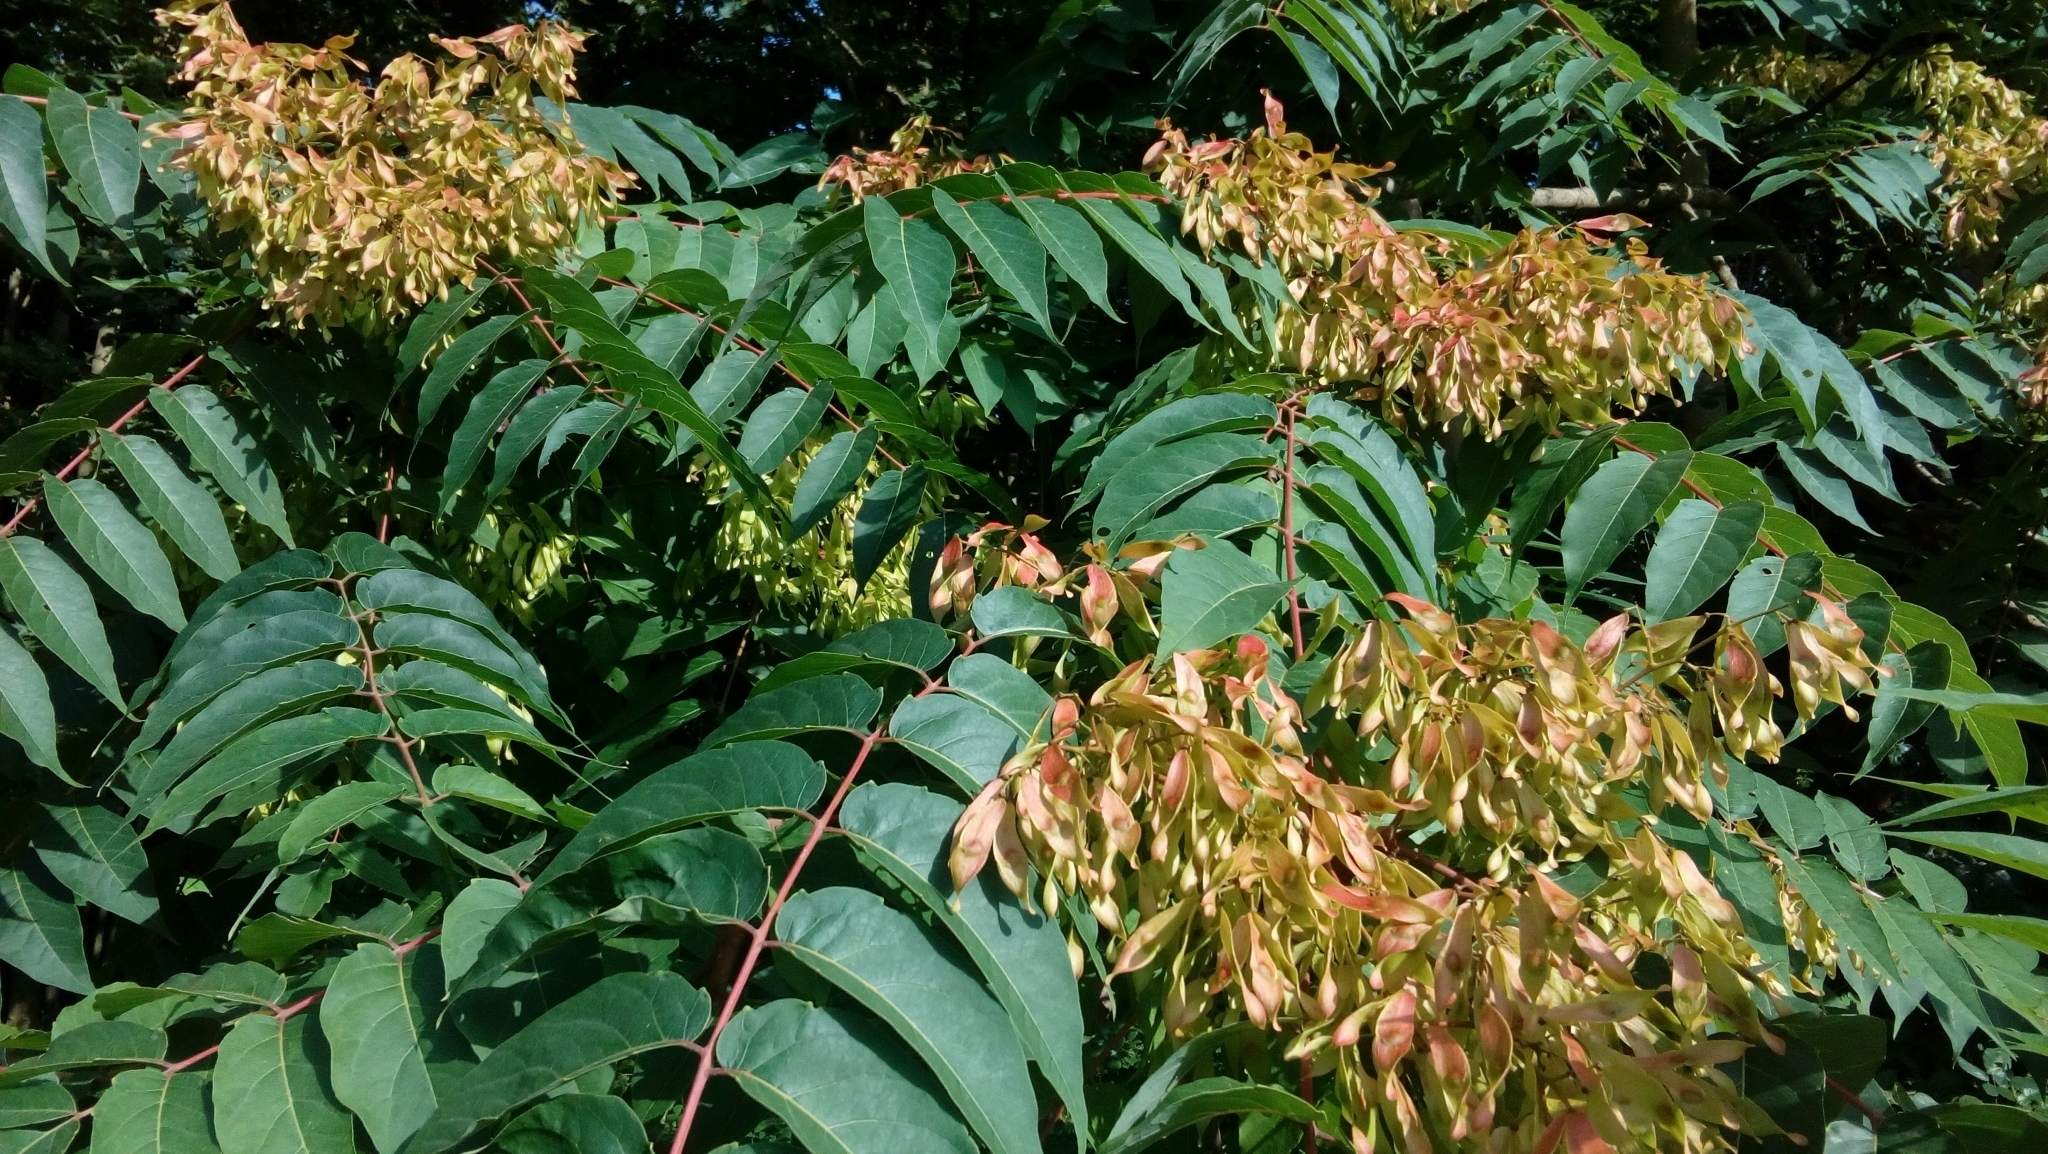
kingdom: Plantae
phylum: Tracheophyta
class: Magnoliopsida
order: Sapindales
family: Simaroubaceae
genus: Ailanthus
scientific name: Ailanthus altissima
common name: Tree-of-heaven
